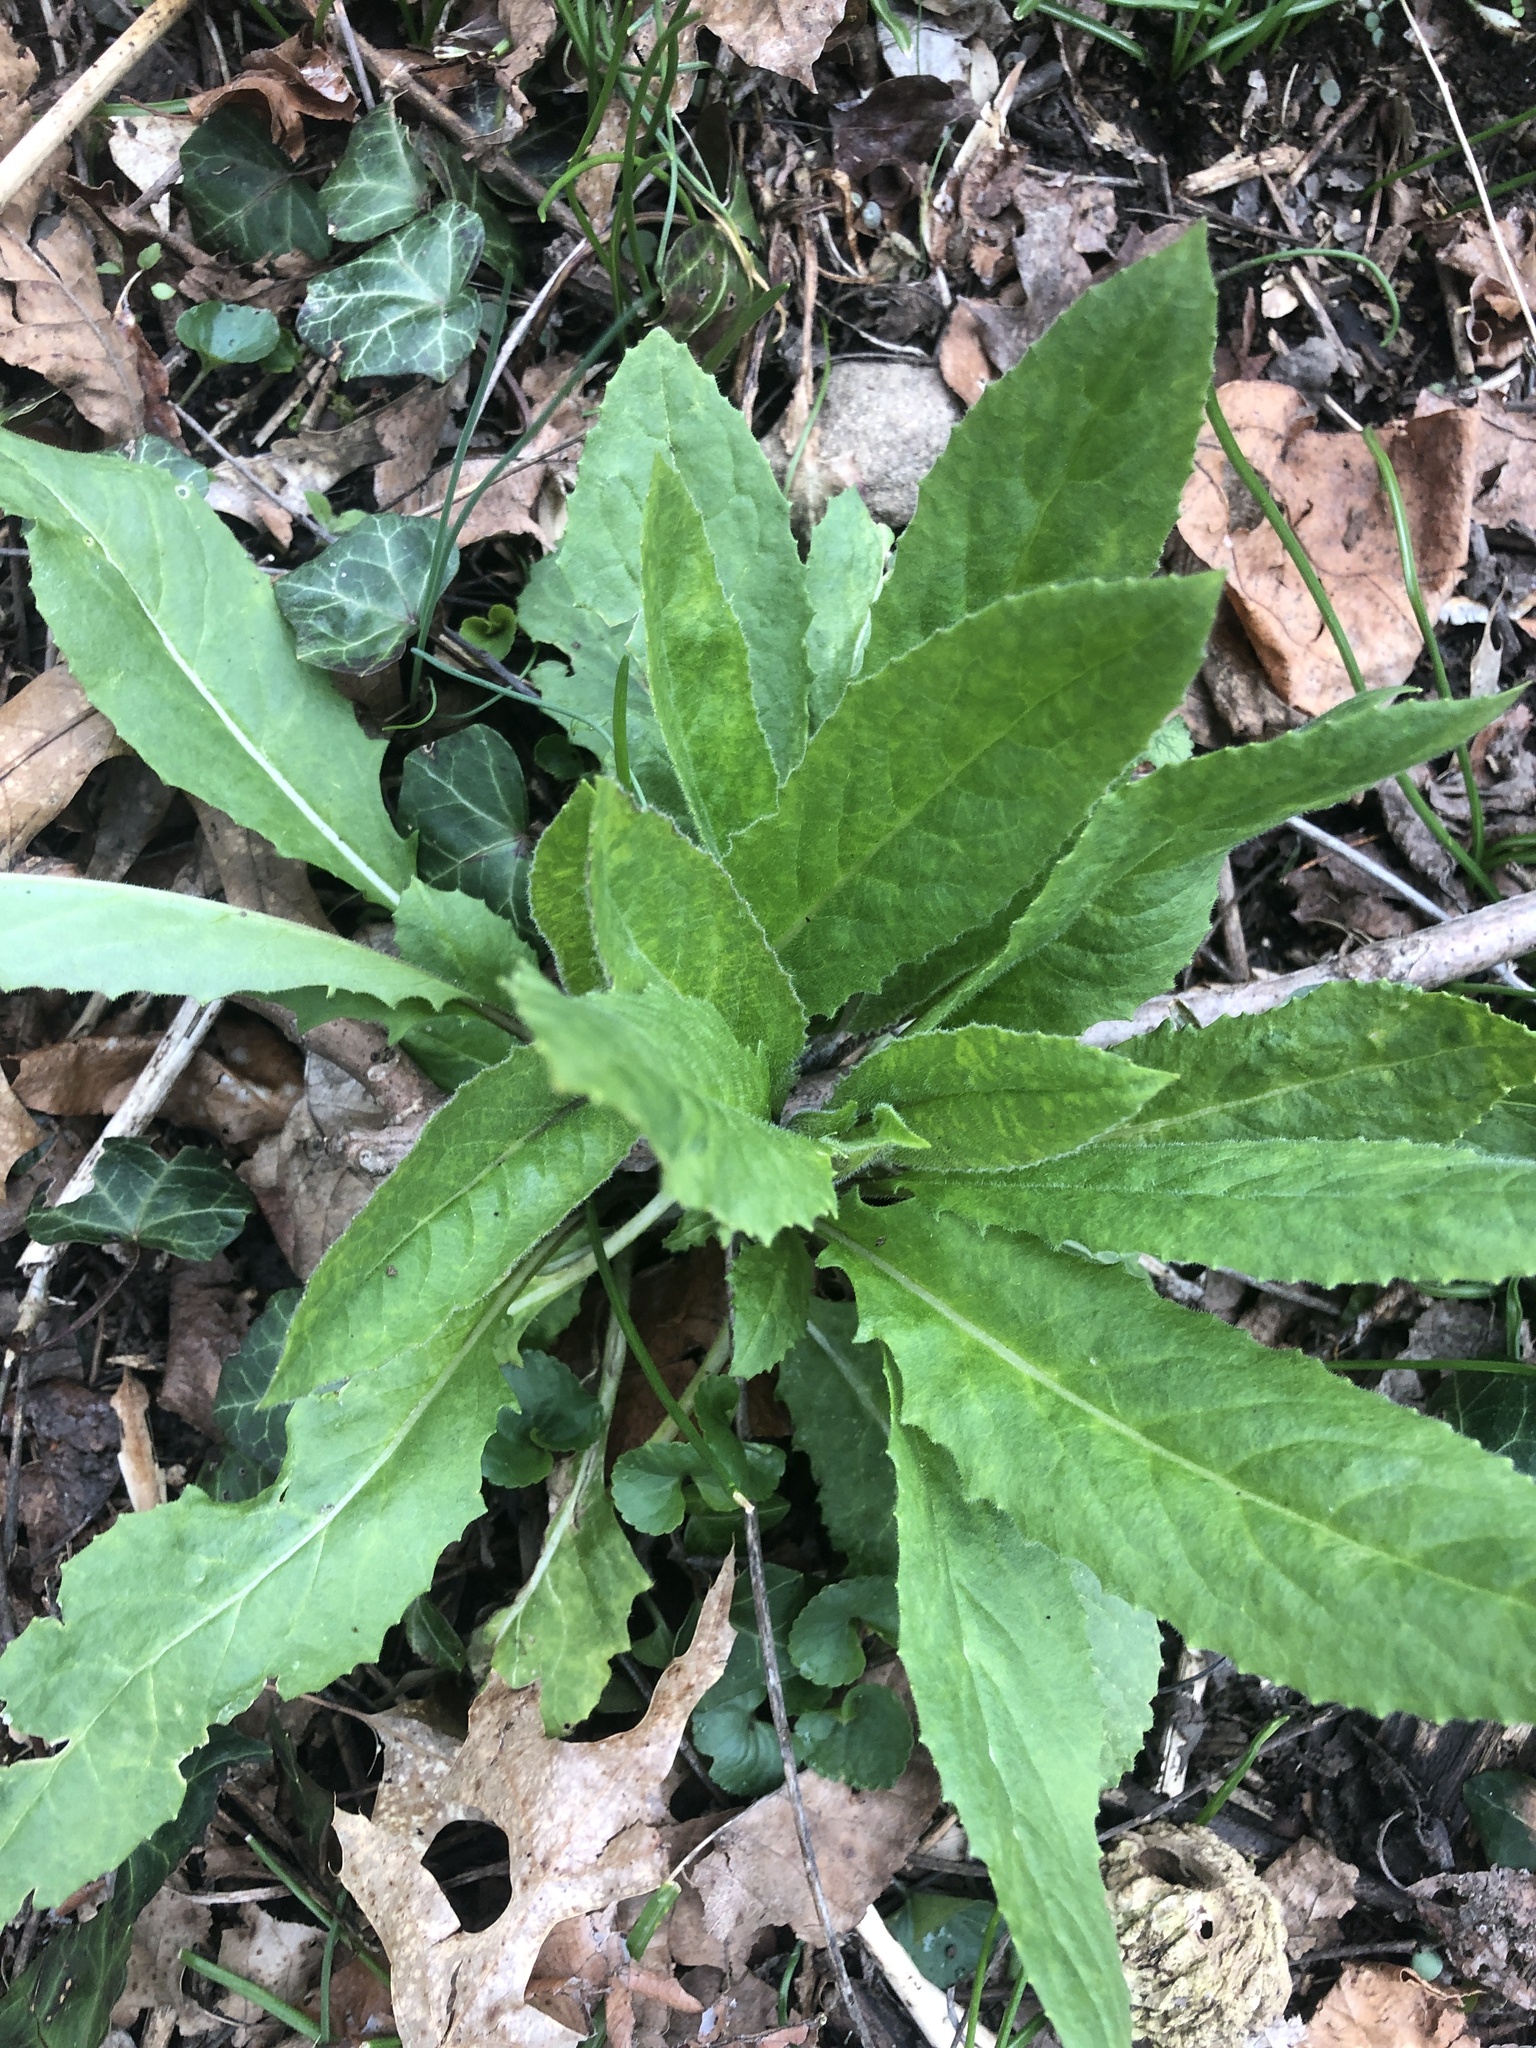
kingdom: Plantae
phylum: Tracheophyta
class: Magnoliopsida
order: Brassicales
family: Brassicaceae
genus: Hesperis
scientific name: Hesperis matronalis
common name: Dame's-violet
